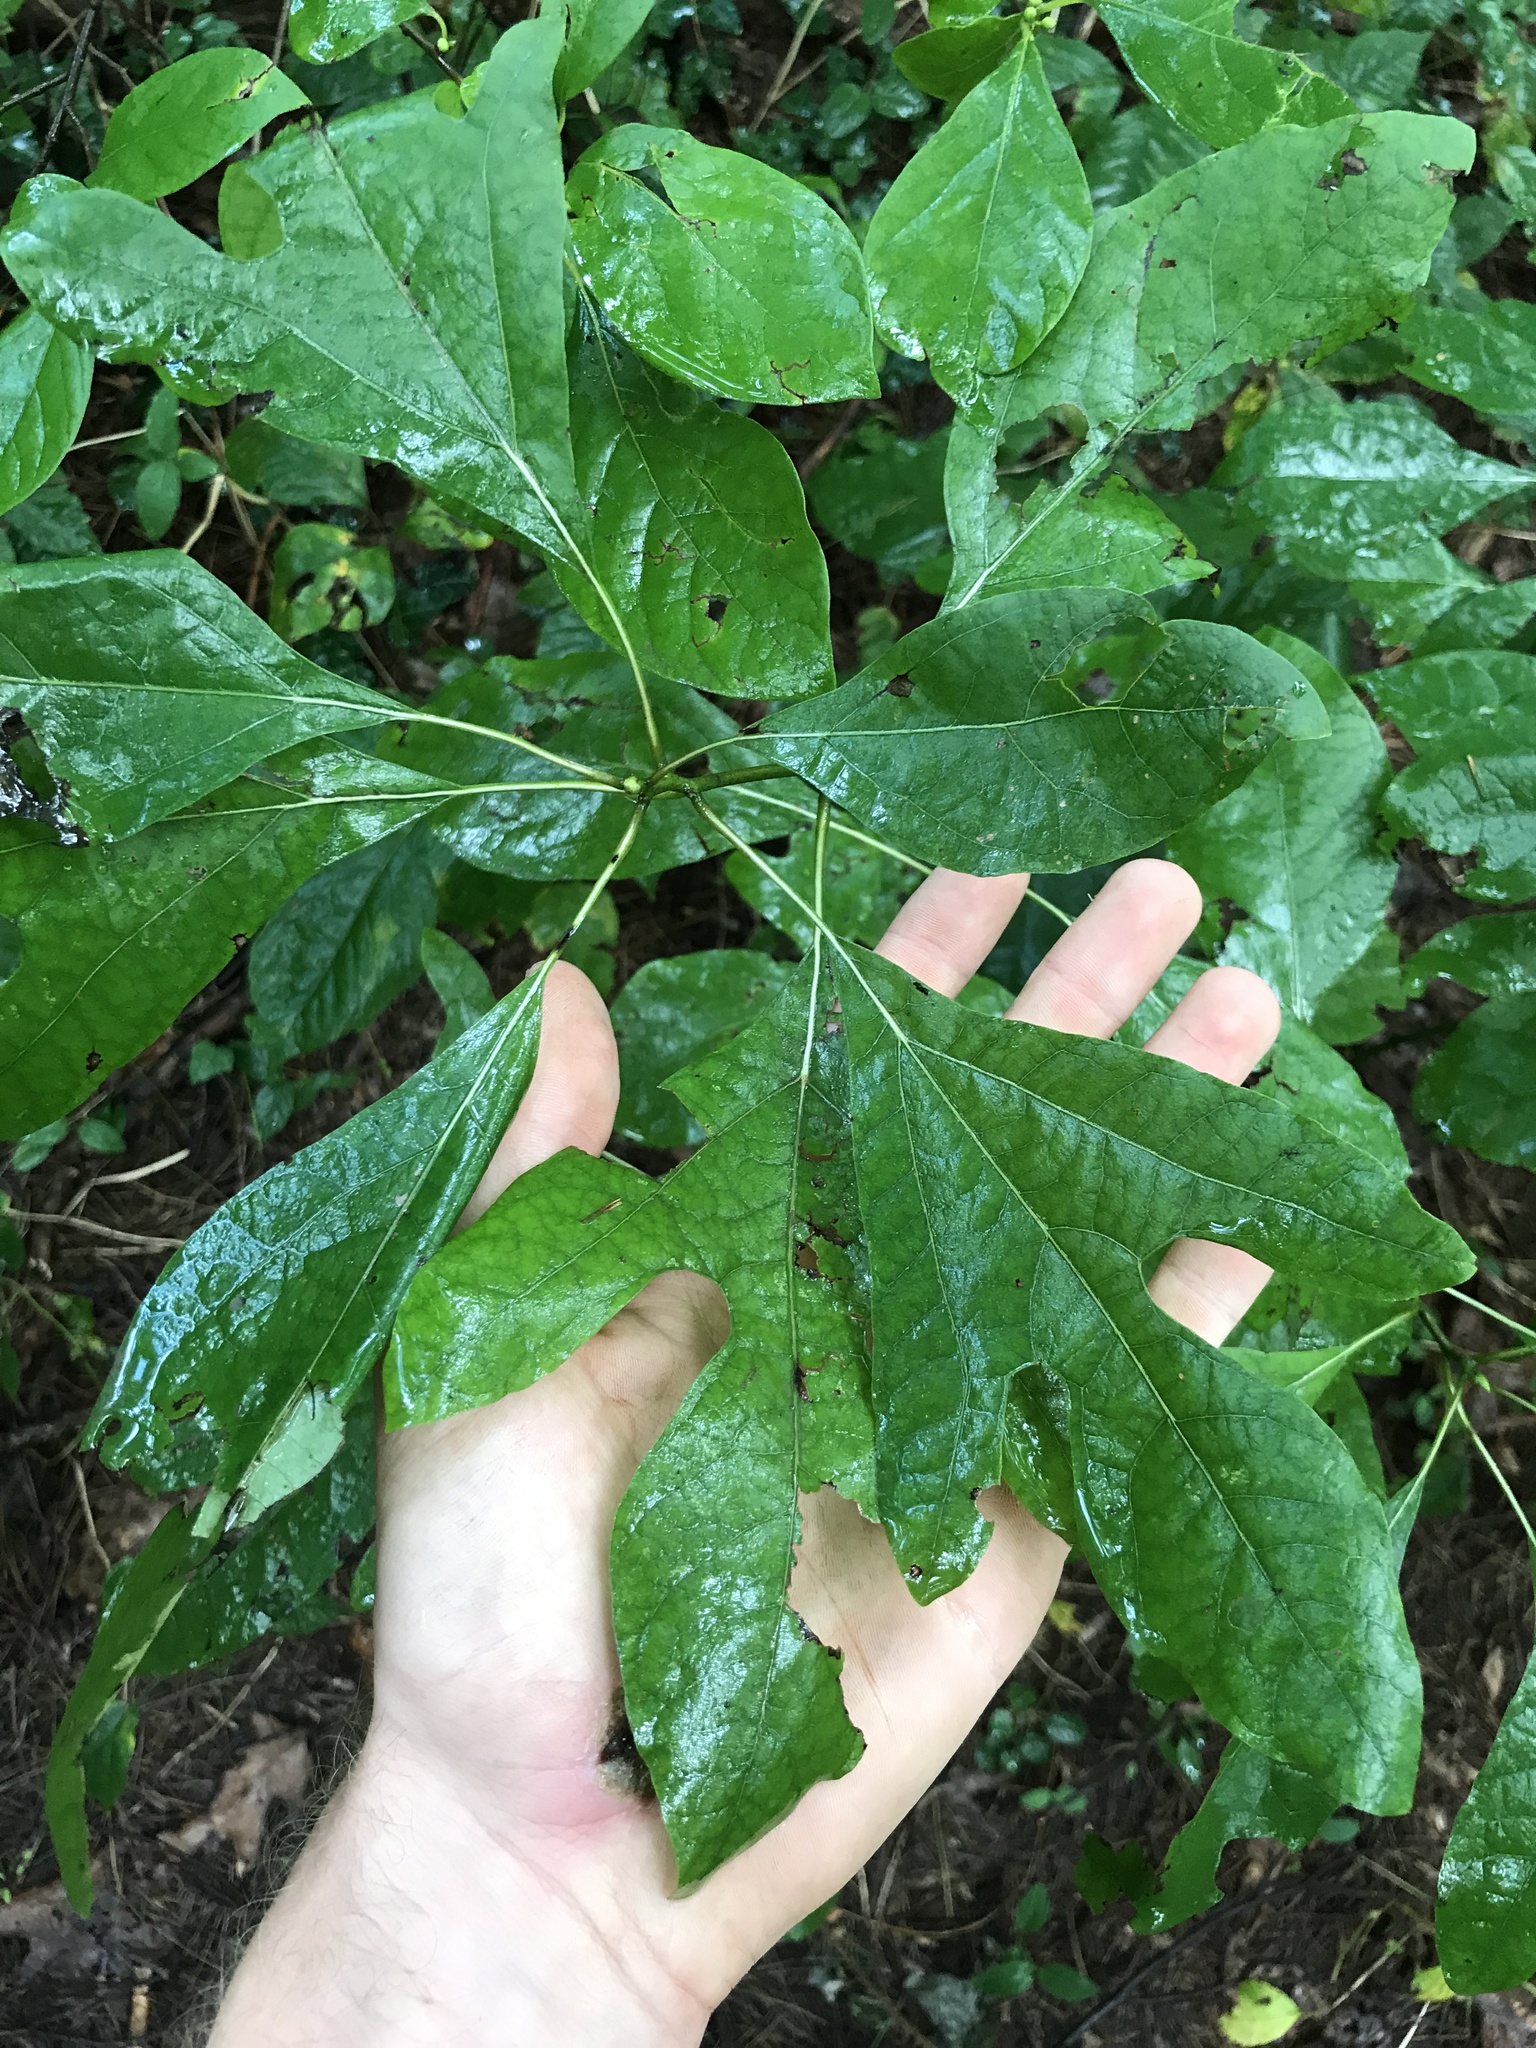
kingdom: Plantae
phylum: Tracheophyta
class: Magnoliopsida
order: Laurales
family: Lauraceae
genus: Sassafras
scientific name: Sassafras albidum
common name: Sassafras
